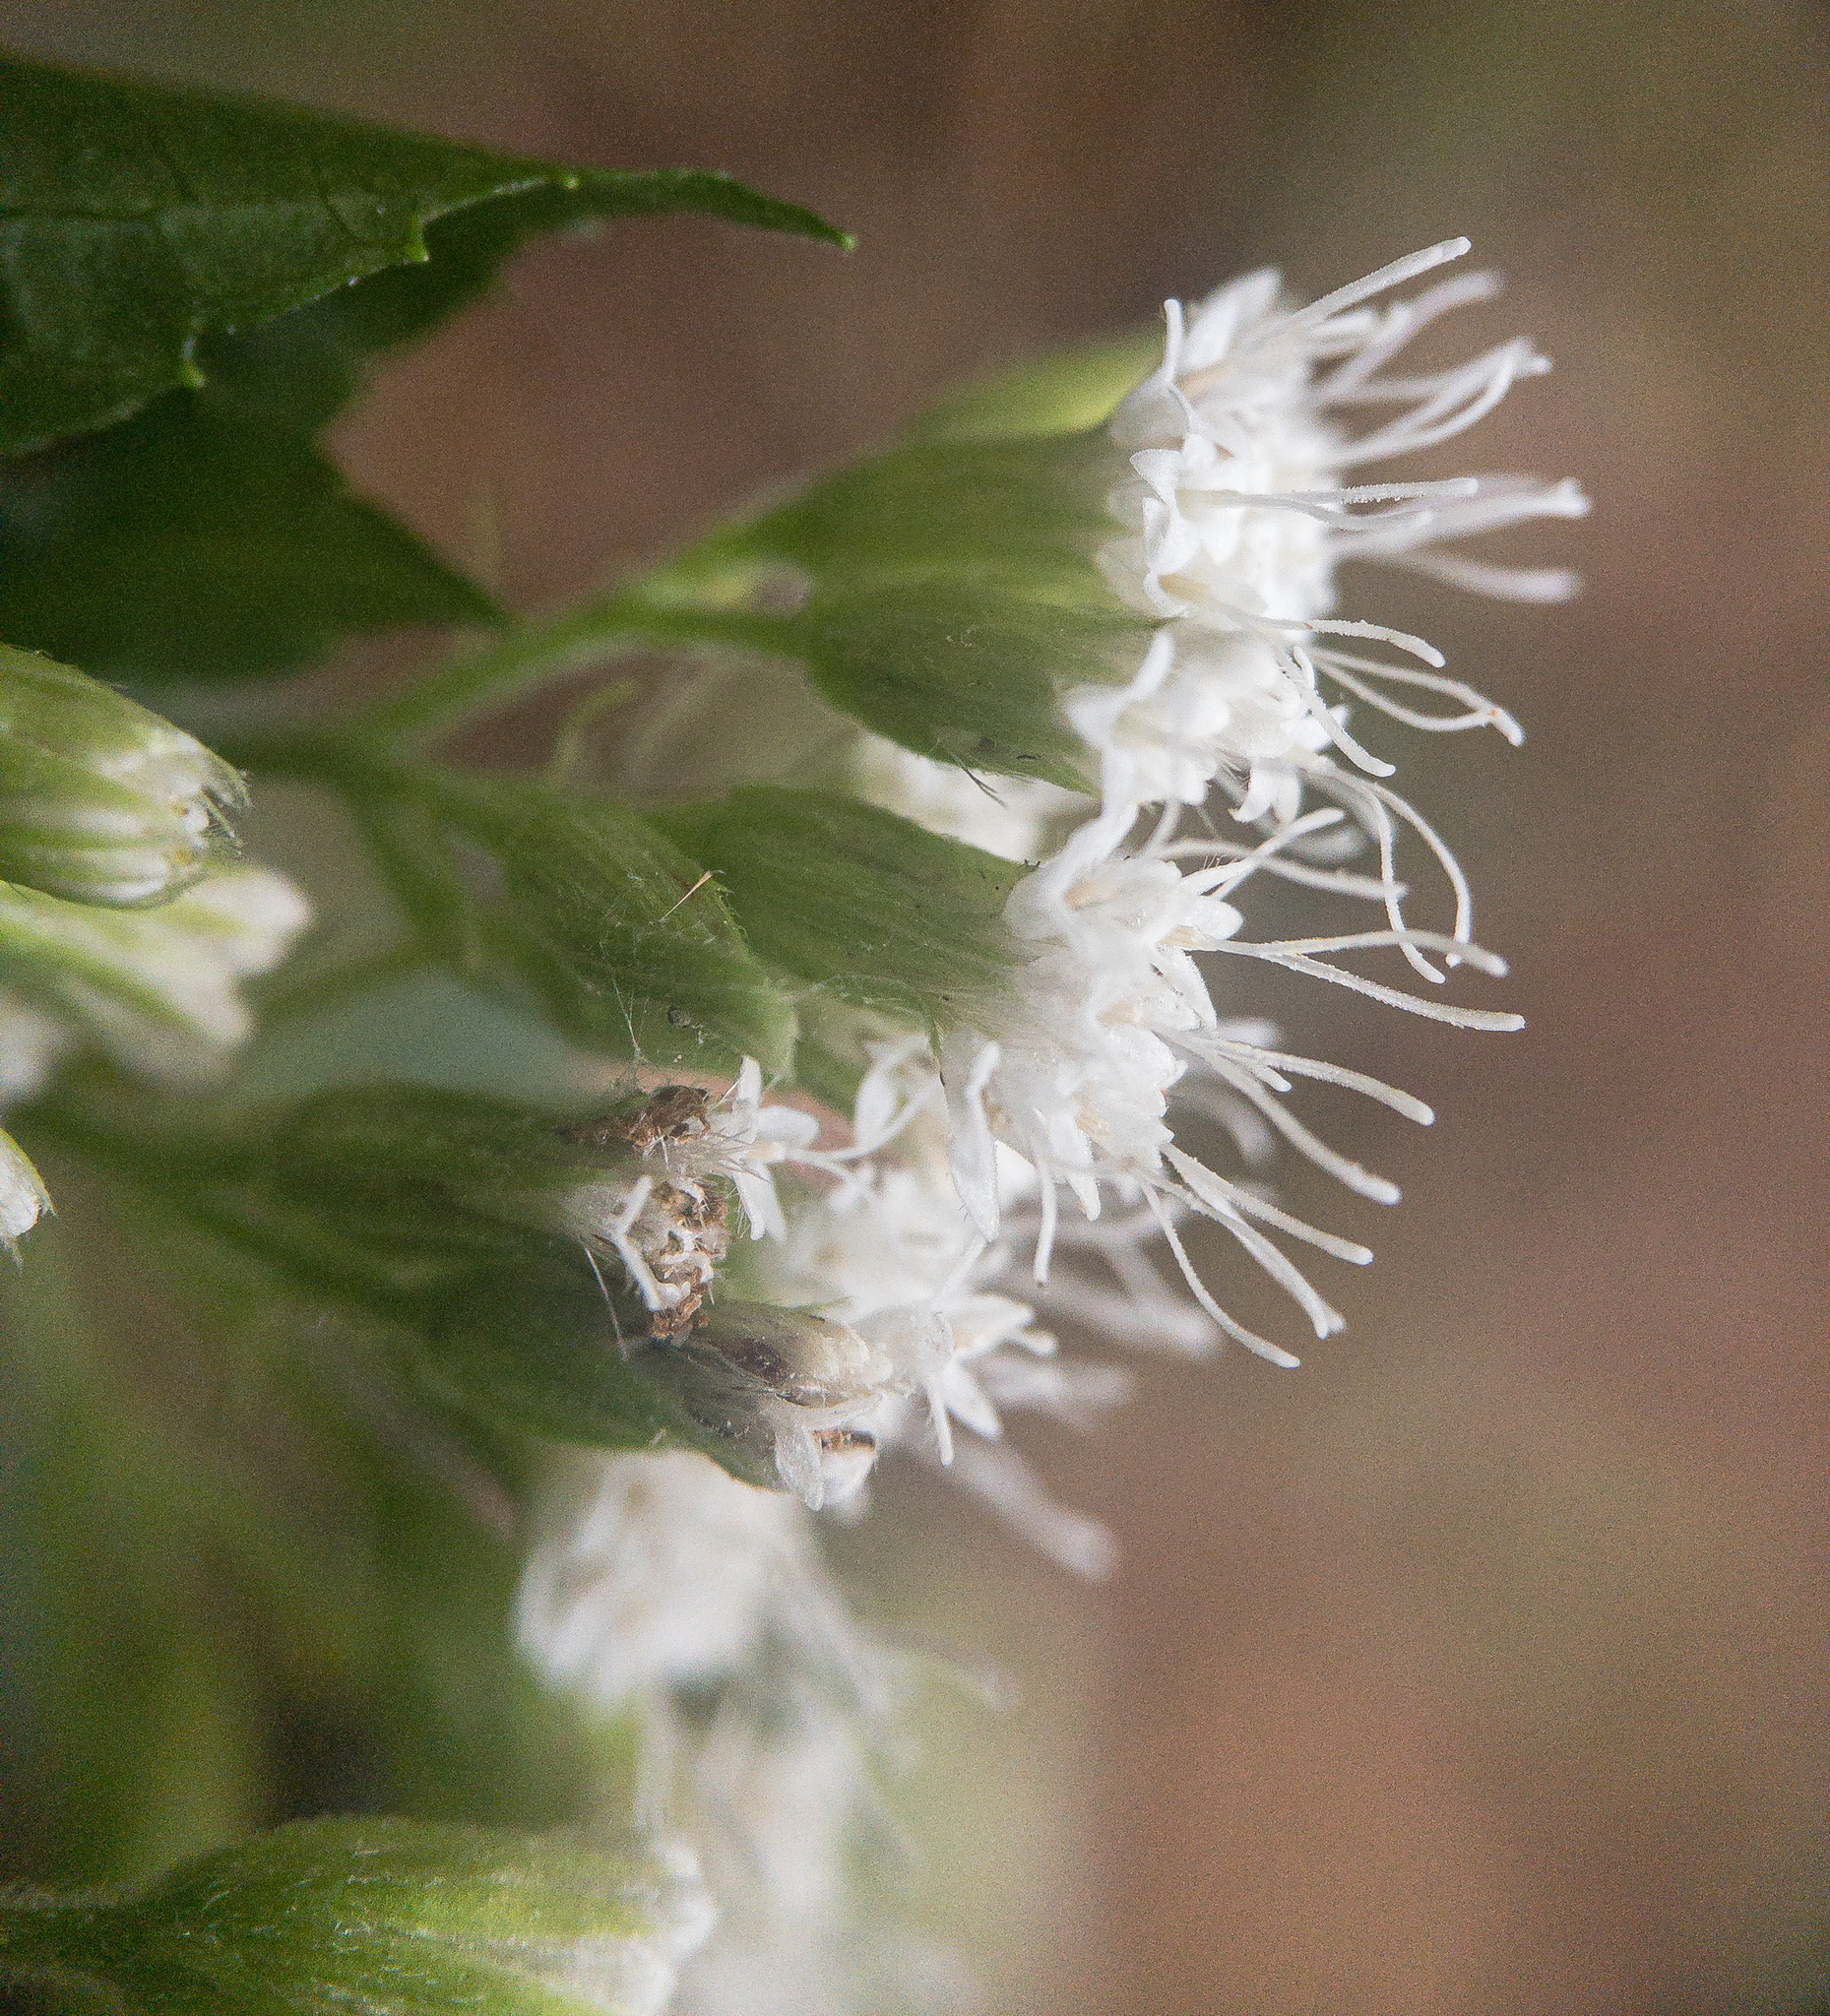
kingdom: Plantae
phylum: Tracheophyta
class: Magnoliopsida
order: Asterales
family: Asteraceae
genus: Ageratina
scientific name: Ageratina altissima
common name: White snakeroot
